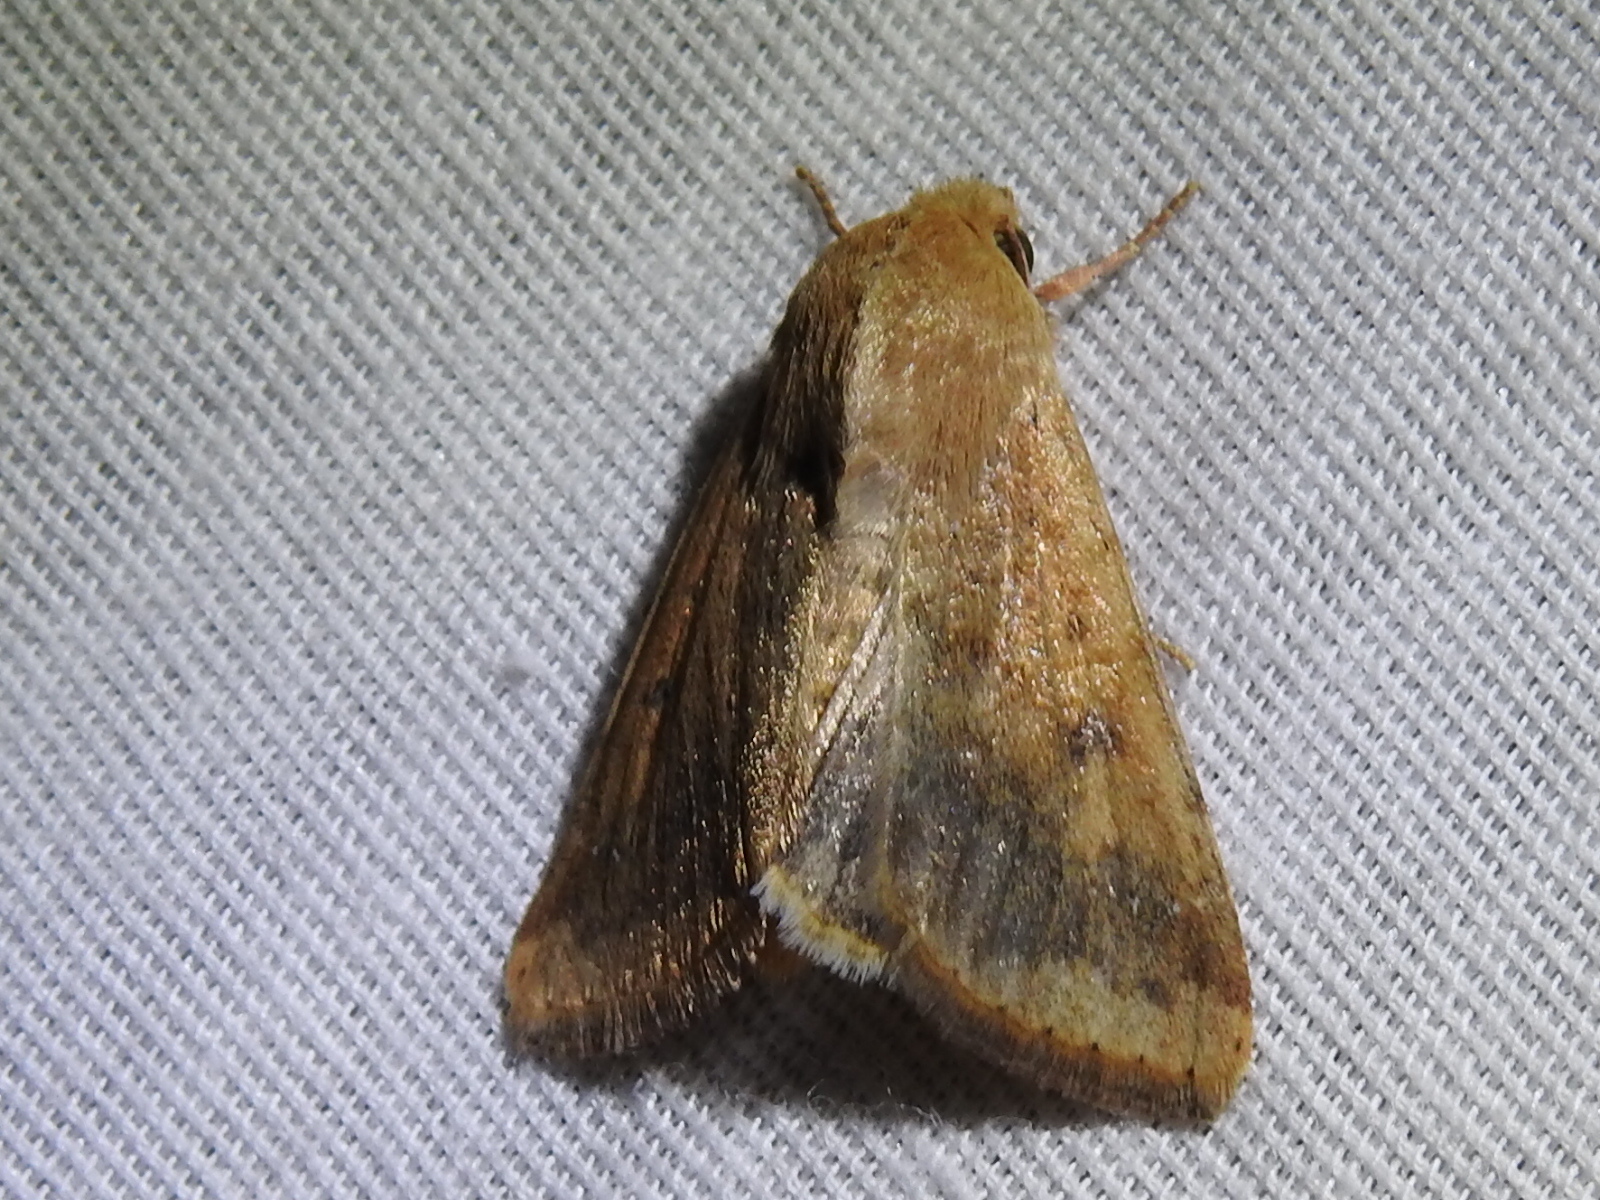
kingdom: Animalia
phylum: Arthropoda
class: Insecta
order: Lepidoptera
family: Noctuidae
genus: Helicoverpa
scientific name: Helicoverpa zea
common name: Bollworm
